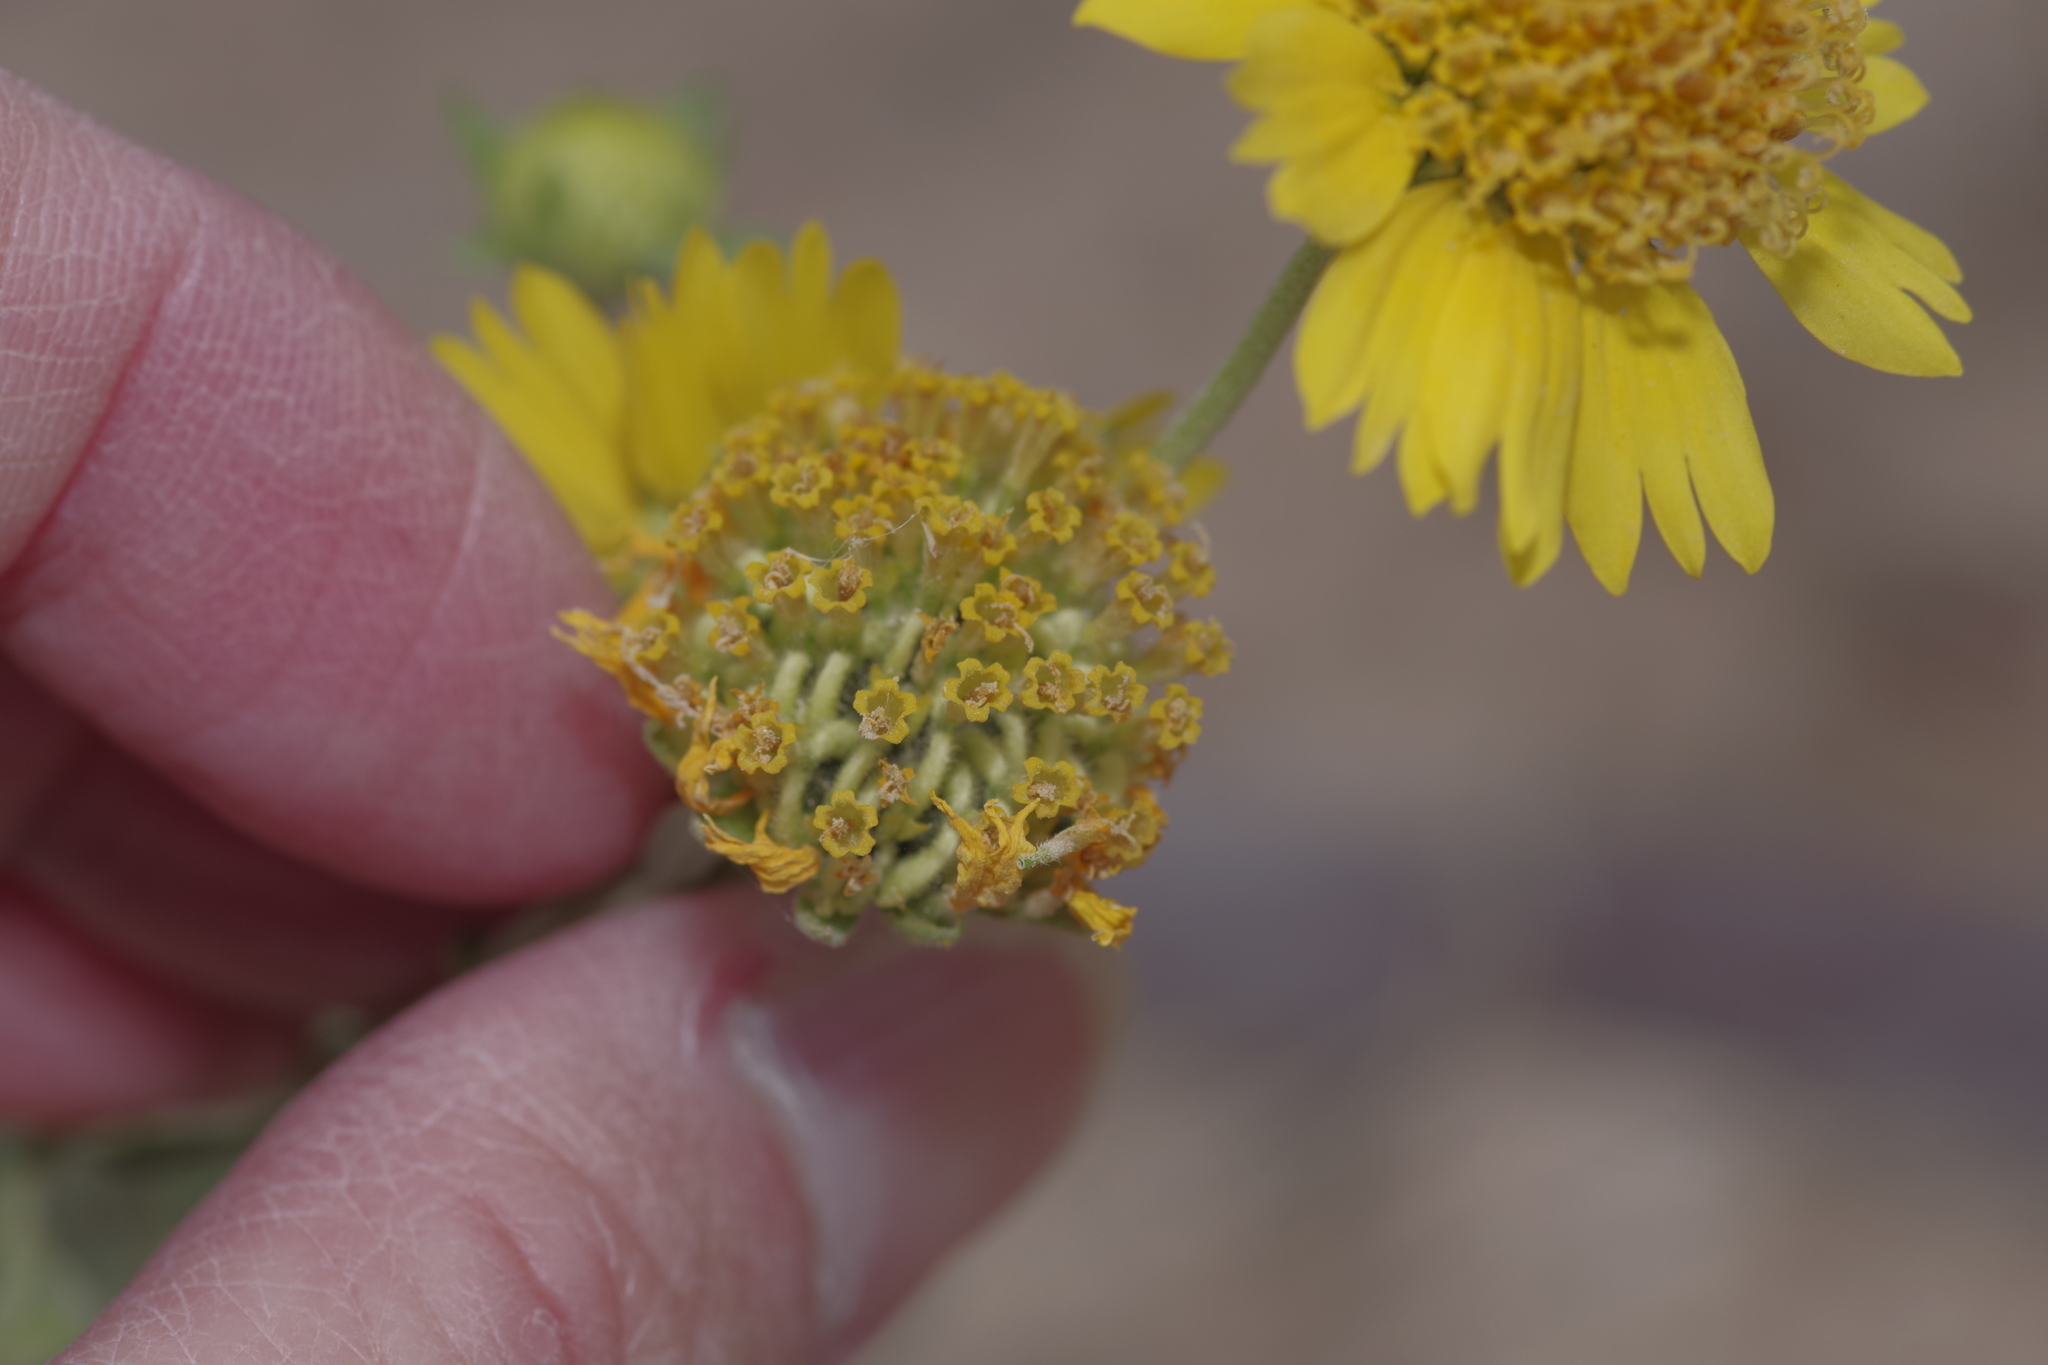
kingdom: Plantae
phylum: Tracheophyta
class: Magnoliopsida
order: Asterales
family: Asteraceae
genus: Verbesina
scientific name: Verbesina encelioides
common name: Golden crownbeard
